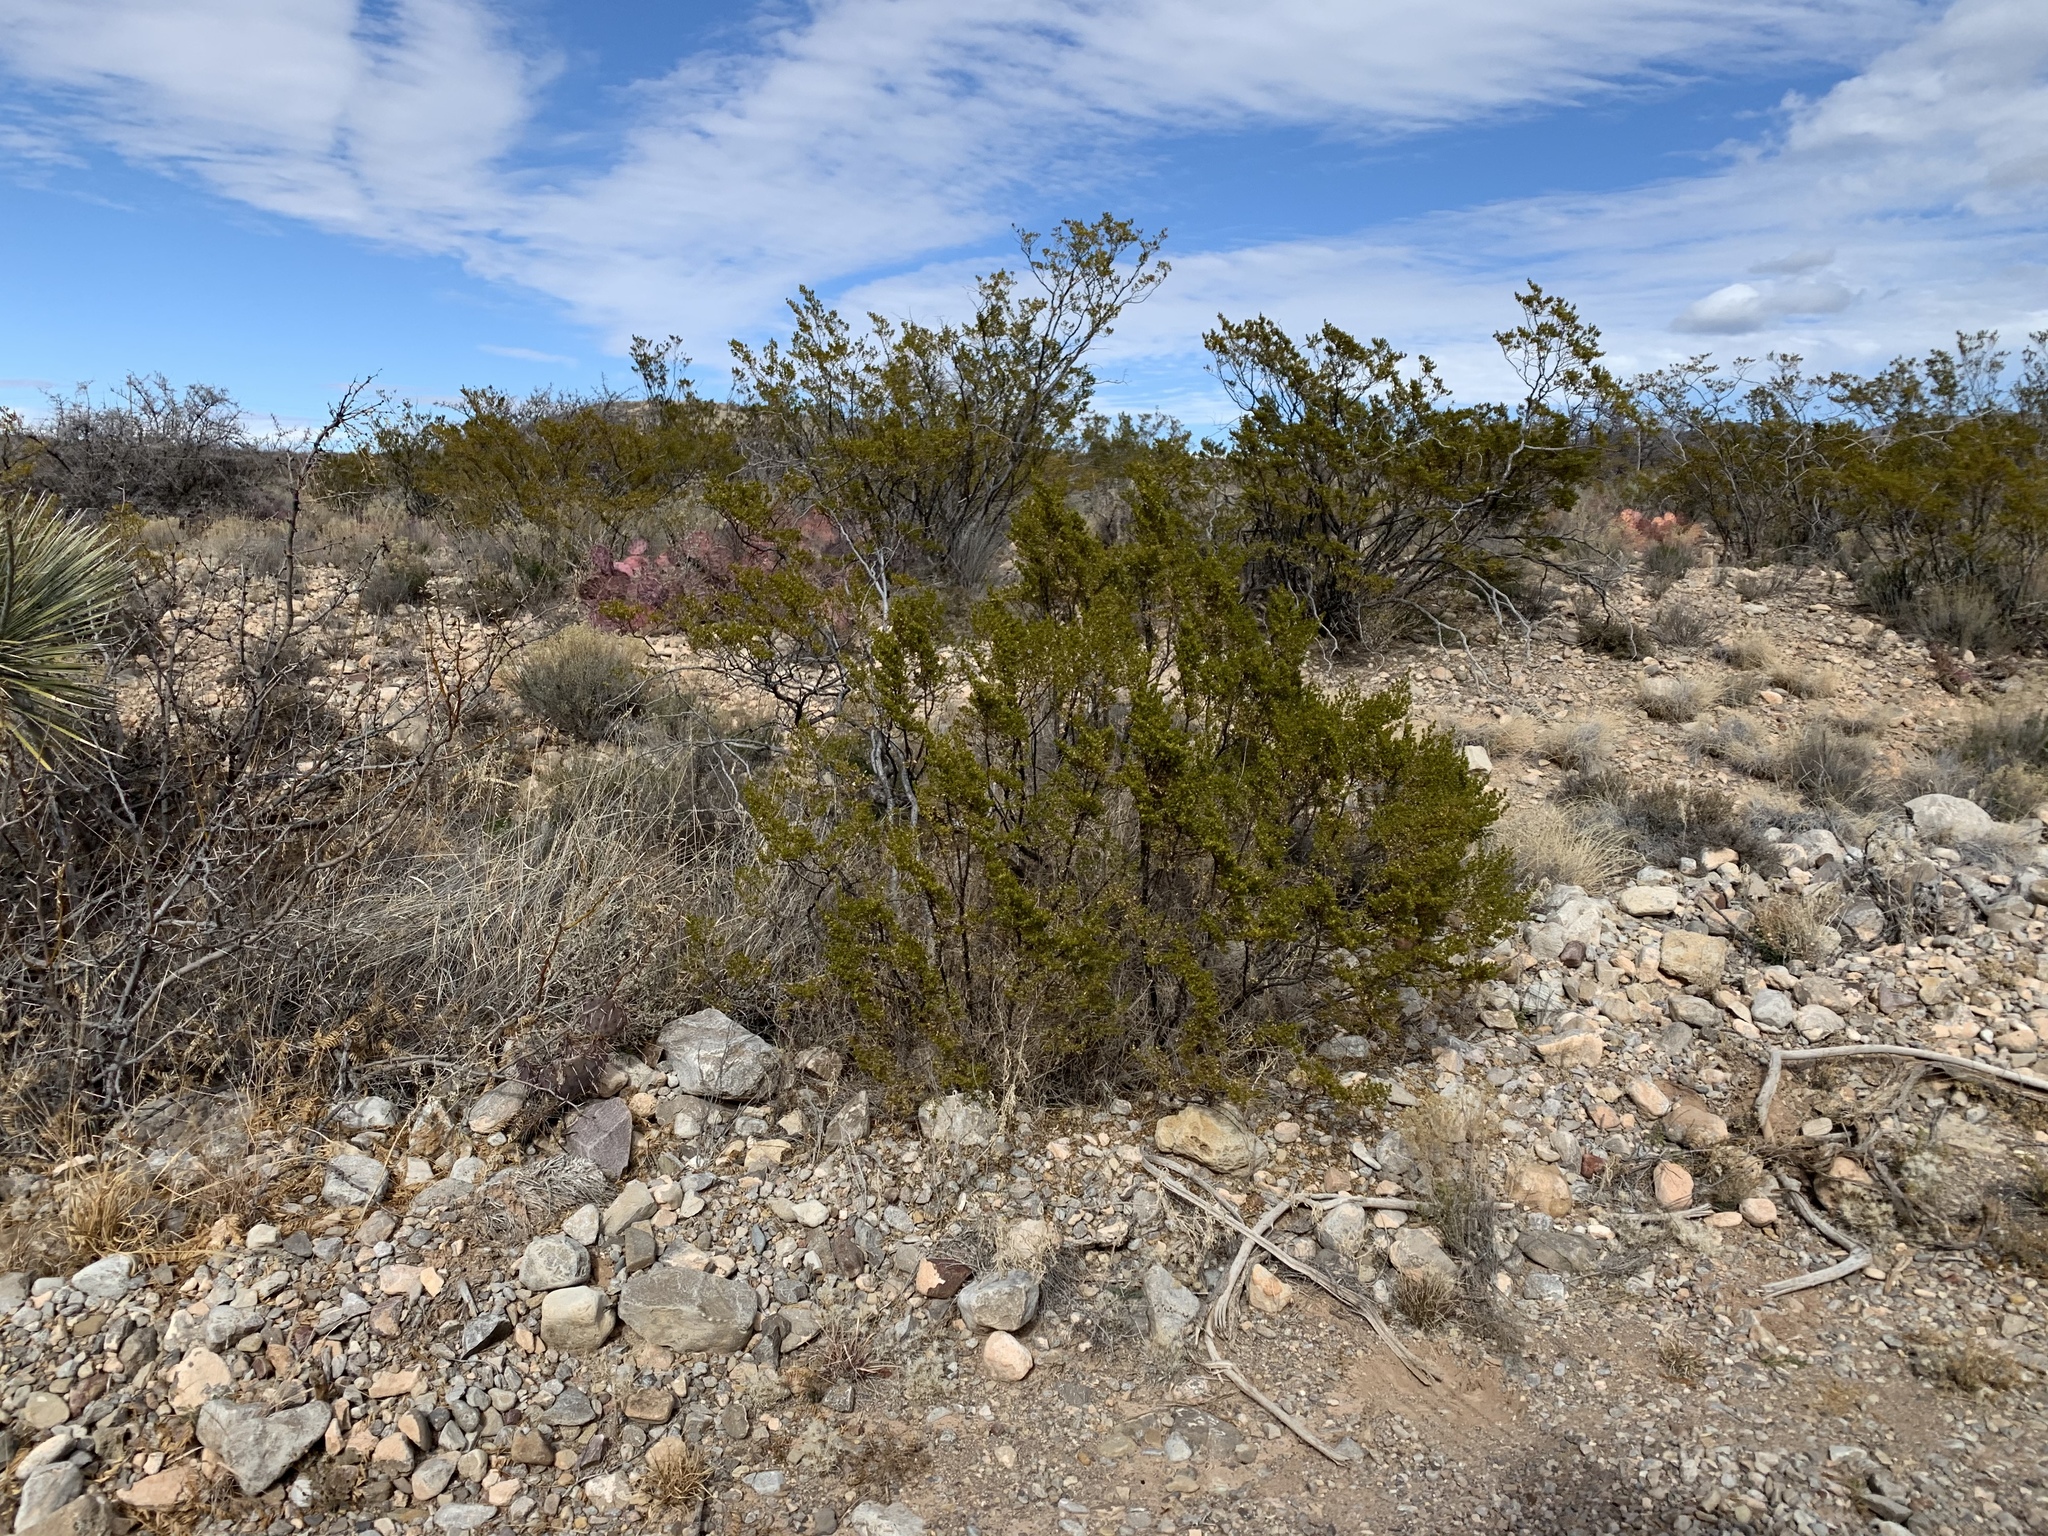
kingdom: Plantae
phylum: Tracheophyta
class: Magnoliopsida
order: Zygophyllales
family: Zygophyllaceae
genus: Larrea
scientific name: Larrea tridentata
